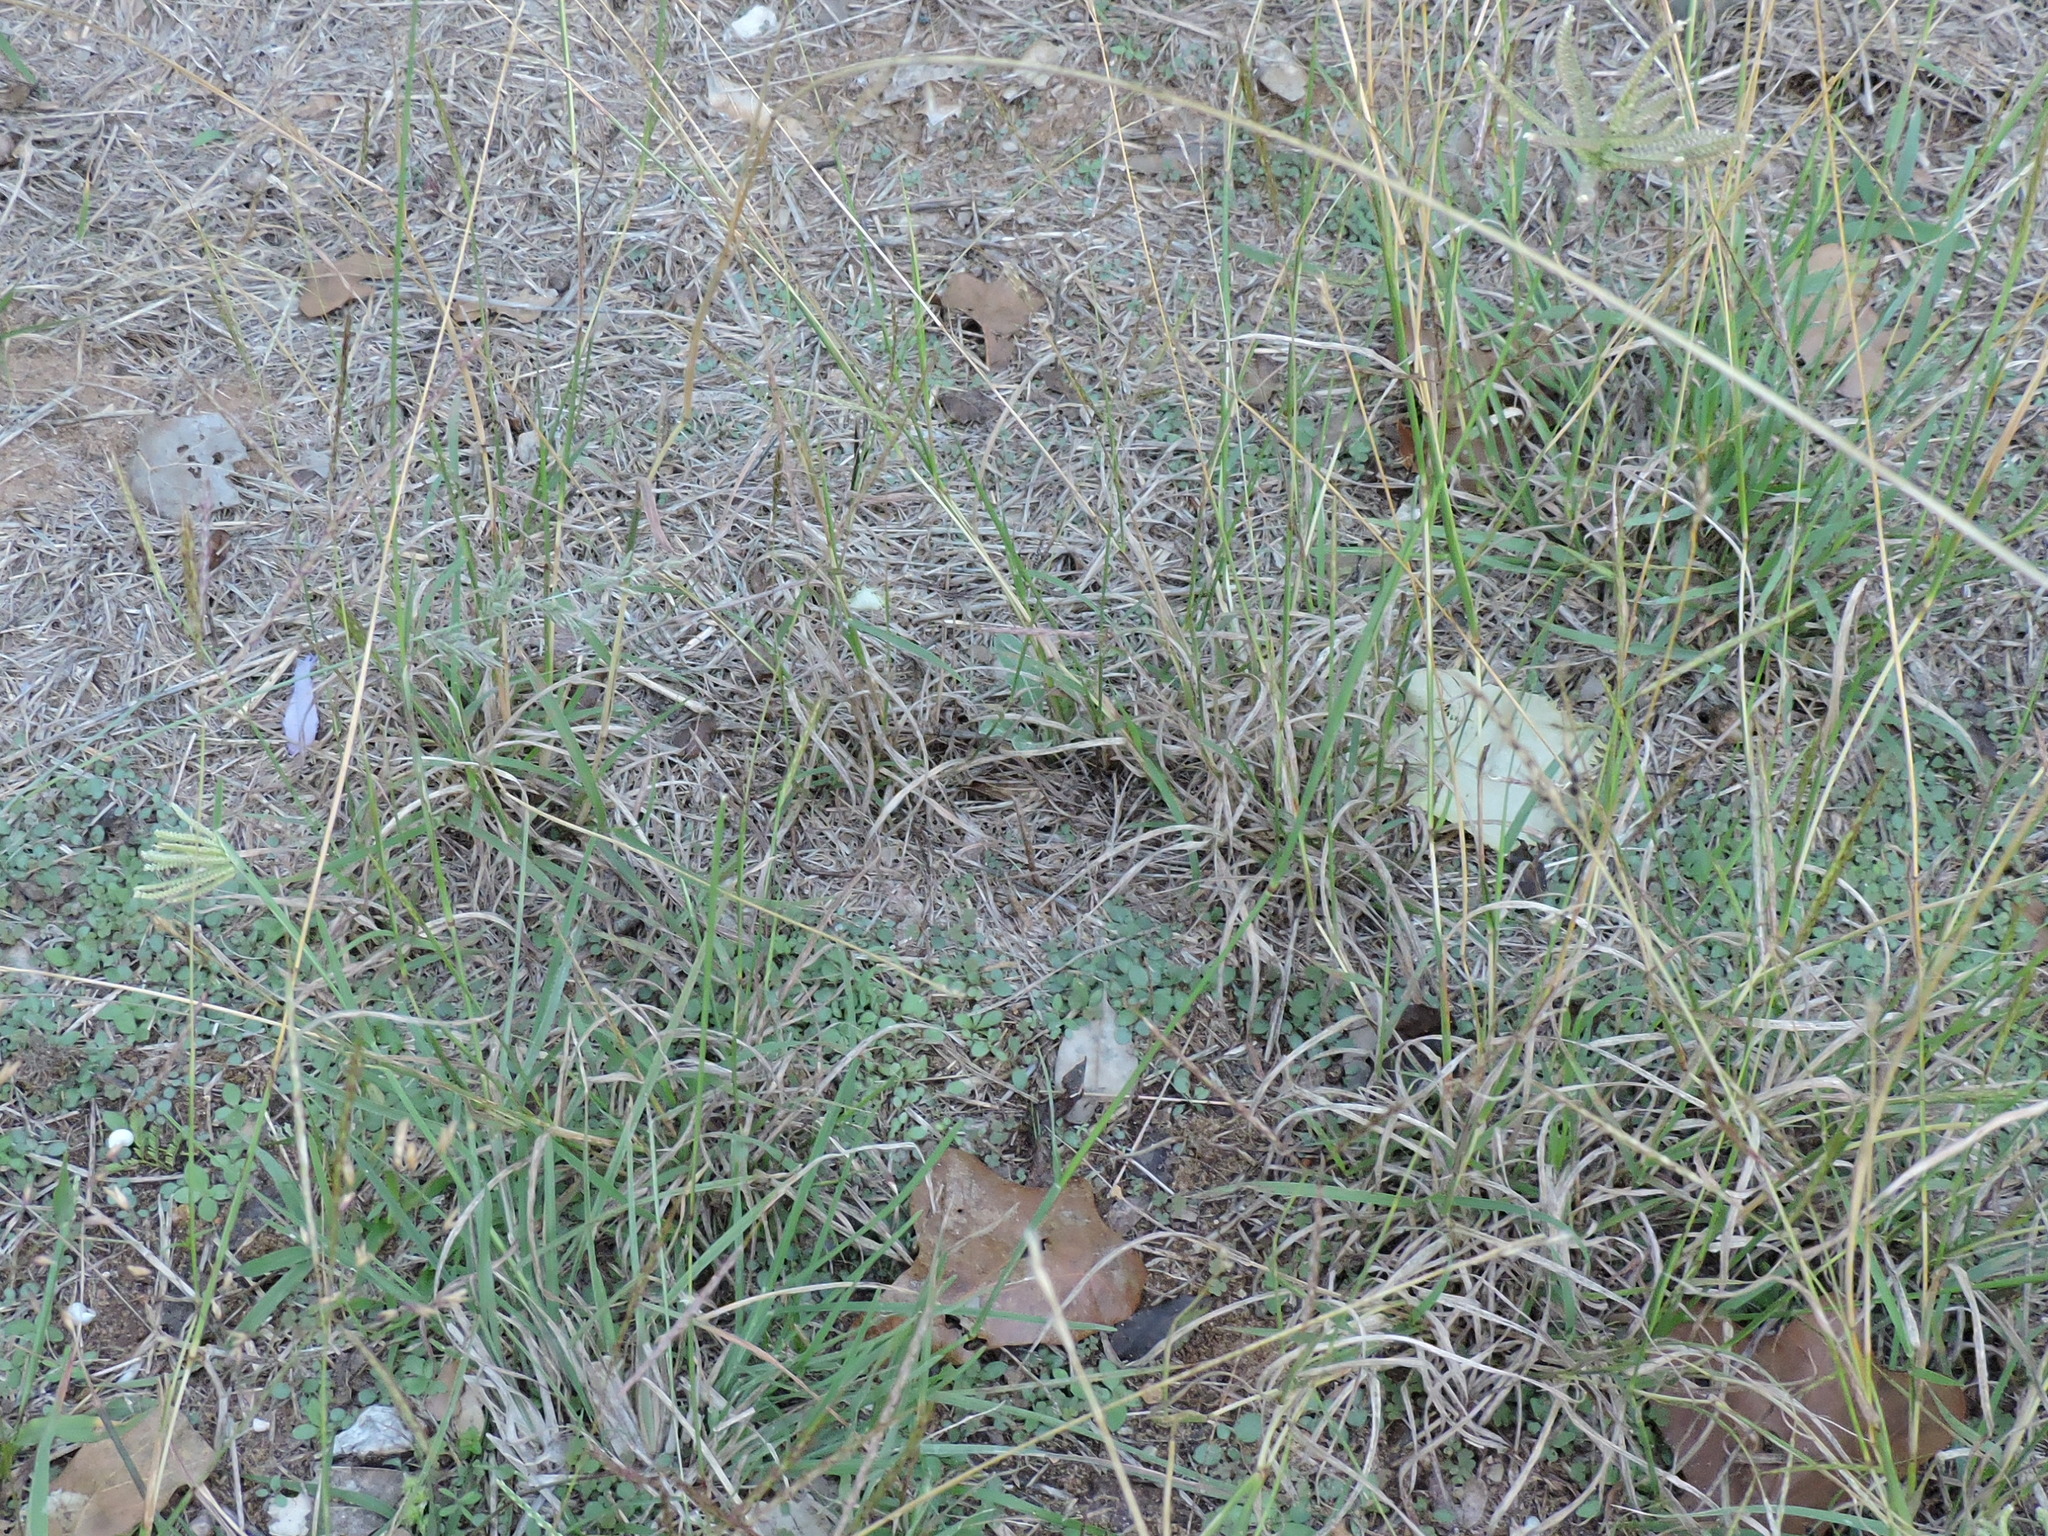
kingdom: Plantae
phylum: Tracheophyta
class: Liliopsida
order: Poales
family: Poaceae
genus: Chloris
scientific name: Chloris cucullata
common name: Hooded windmill grass
